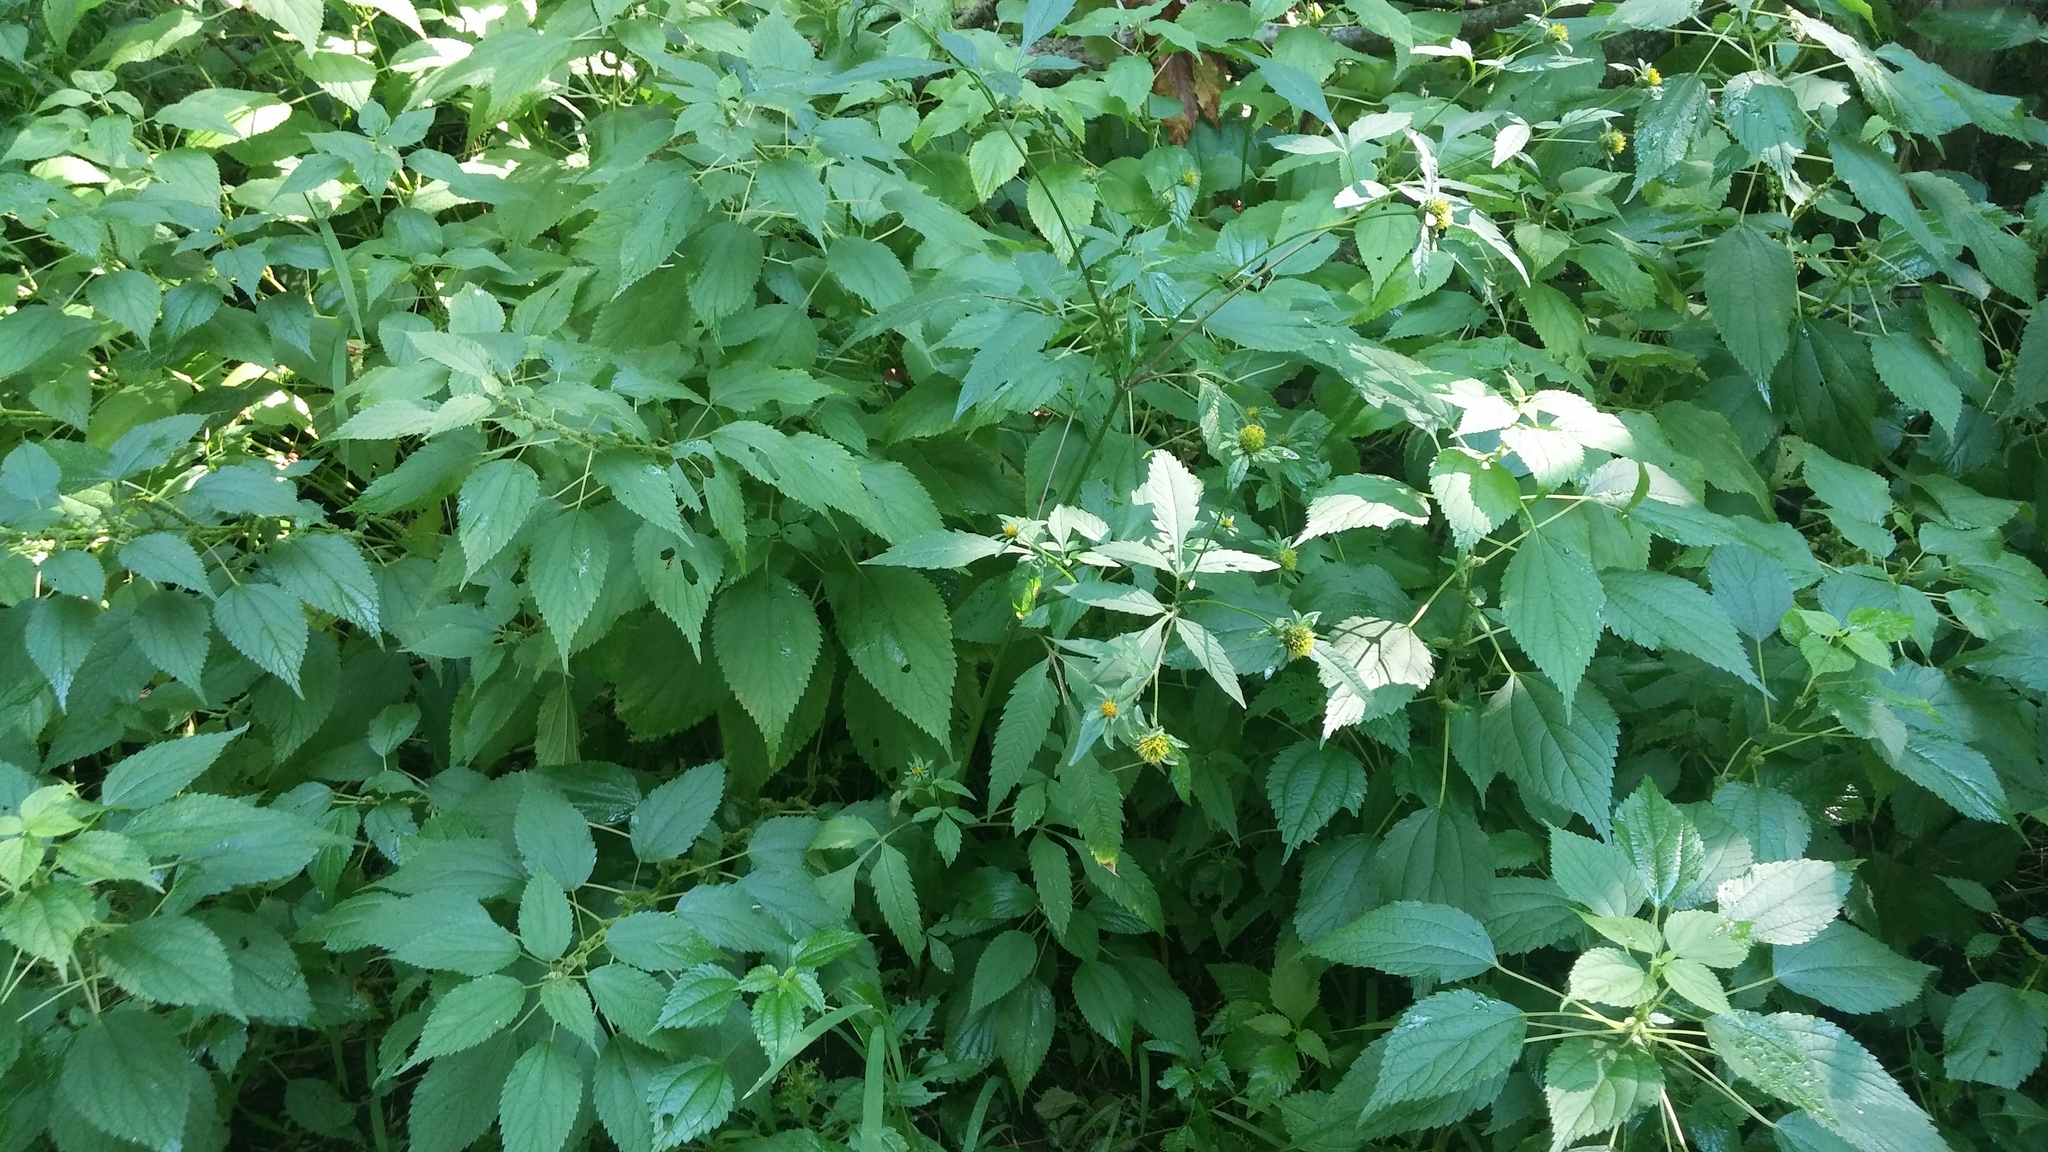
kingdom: Plantae
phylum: Tracheophyta
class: Magnoliopsida
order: Asterales
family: Asteraceae
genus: Bidens
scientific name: Bidens vulgata
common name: Tall beggarticks
